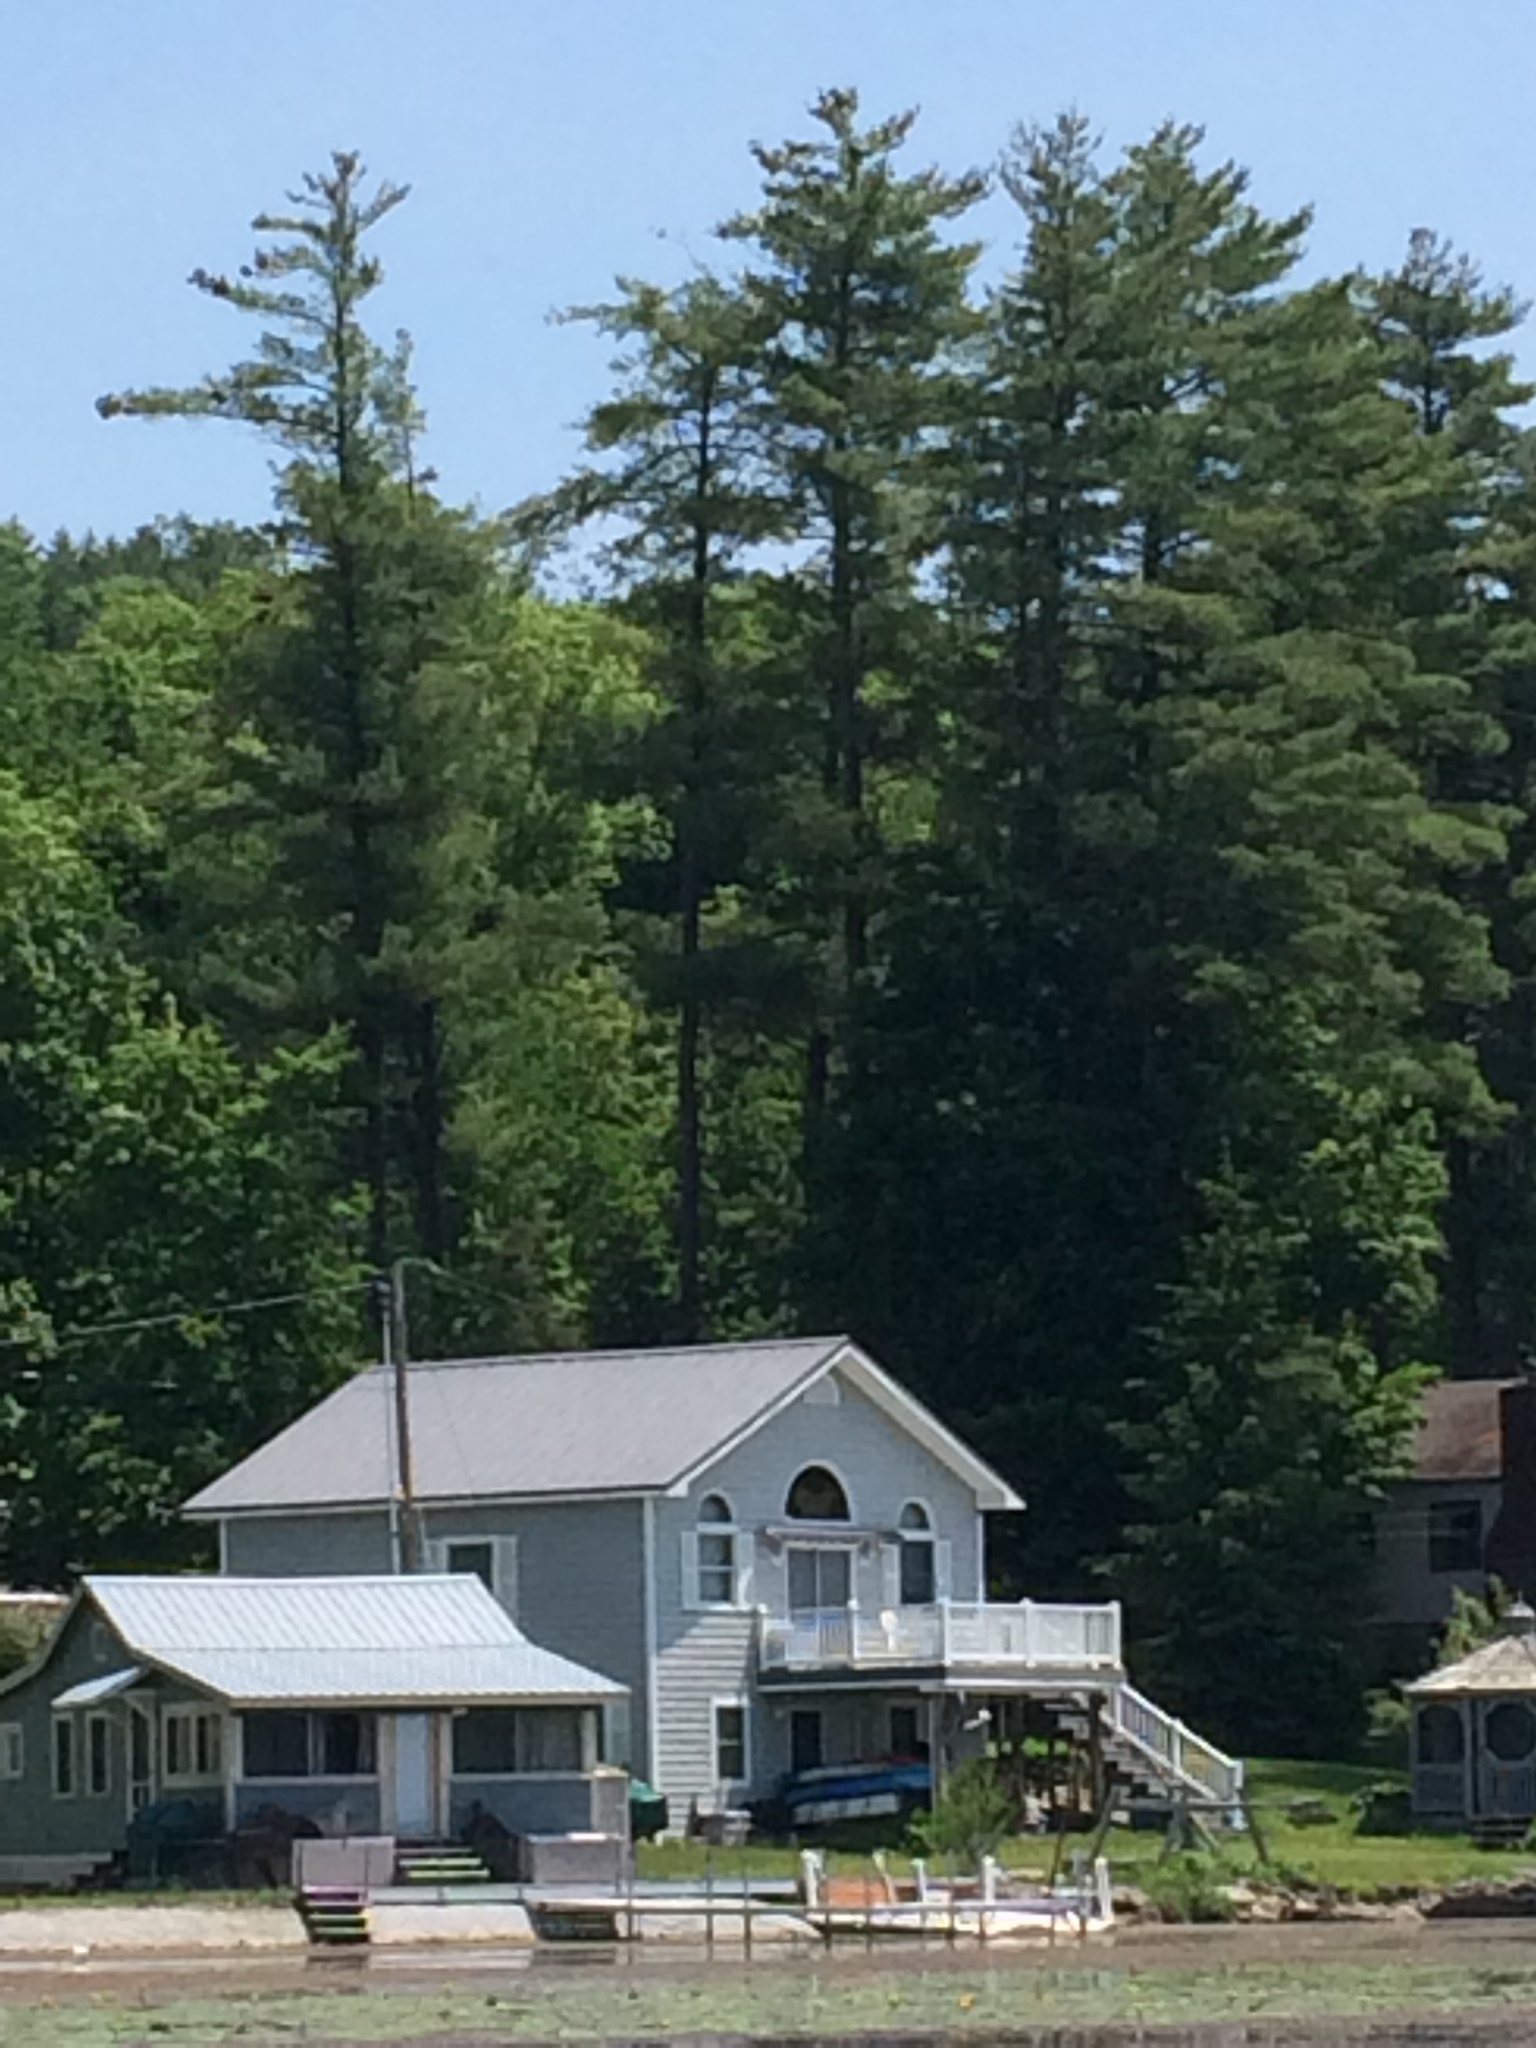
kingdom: Plantae
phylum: Tracheophyta
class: Pinopsida
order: Pinales
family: Pinaceae
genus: Pinus
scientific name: Pinus strobus
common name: Weymouth pine
